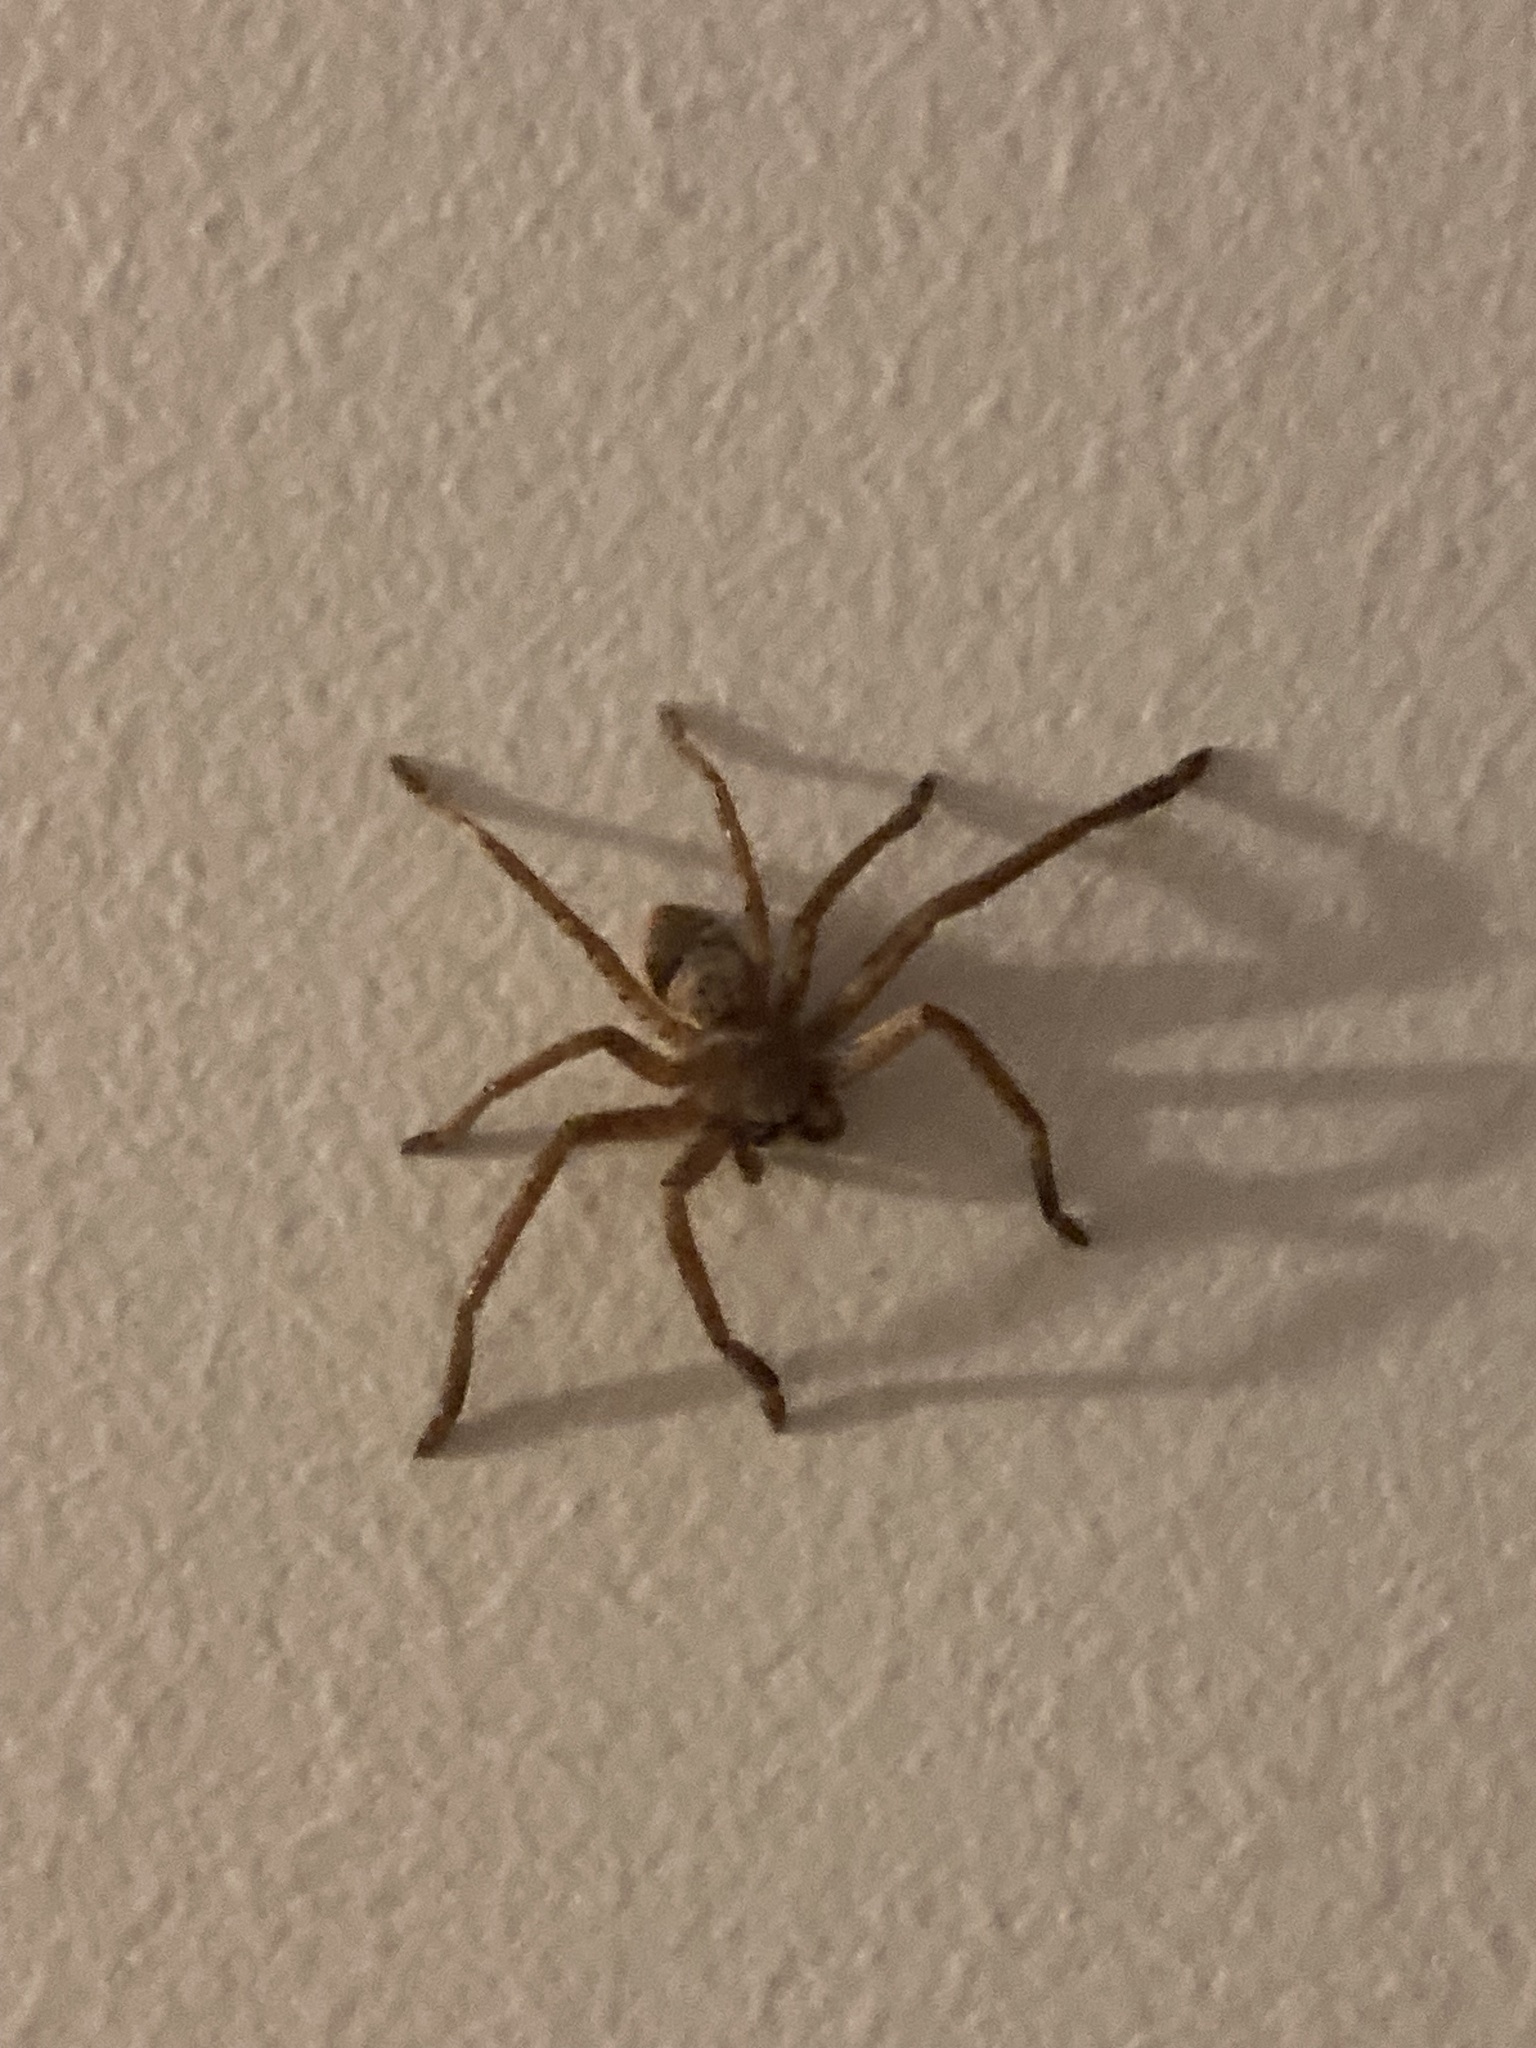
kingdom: Animalia
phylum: Arthropoda
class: Arachnida
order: Araneae
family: Sparassidae
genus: Isopeda
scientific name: Isopeda villosa
